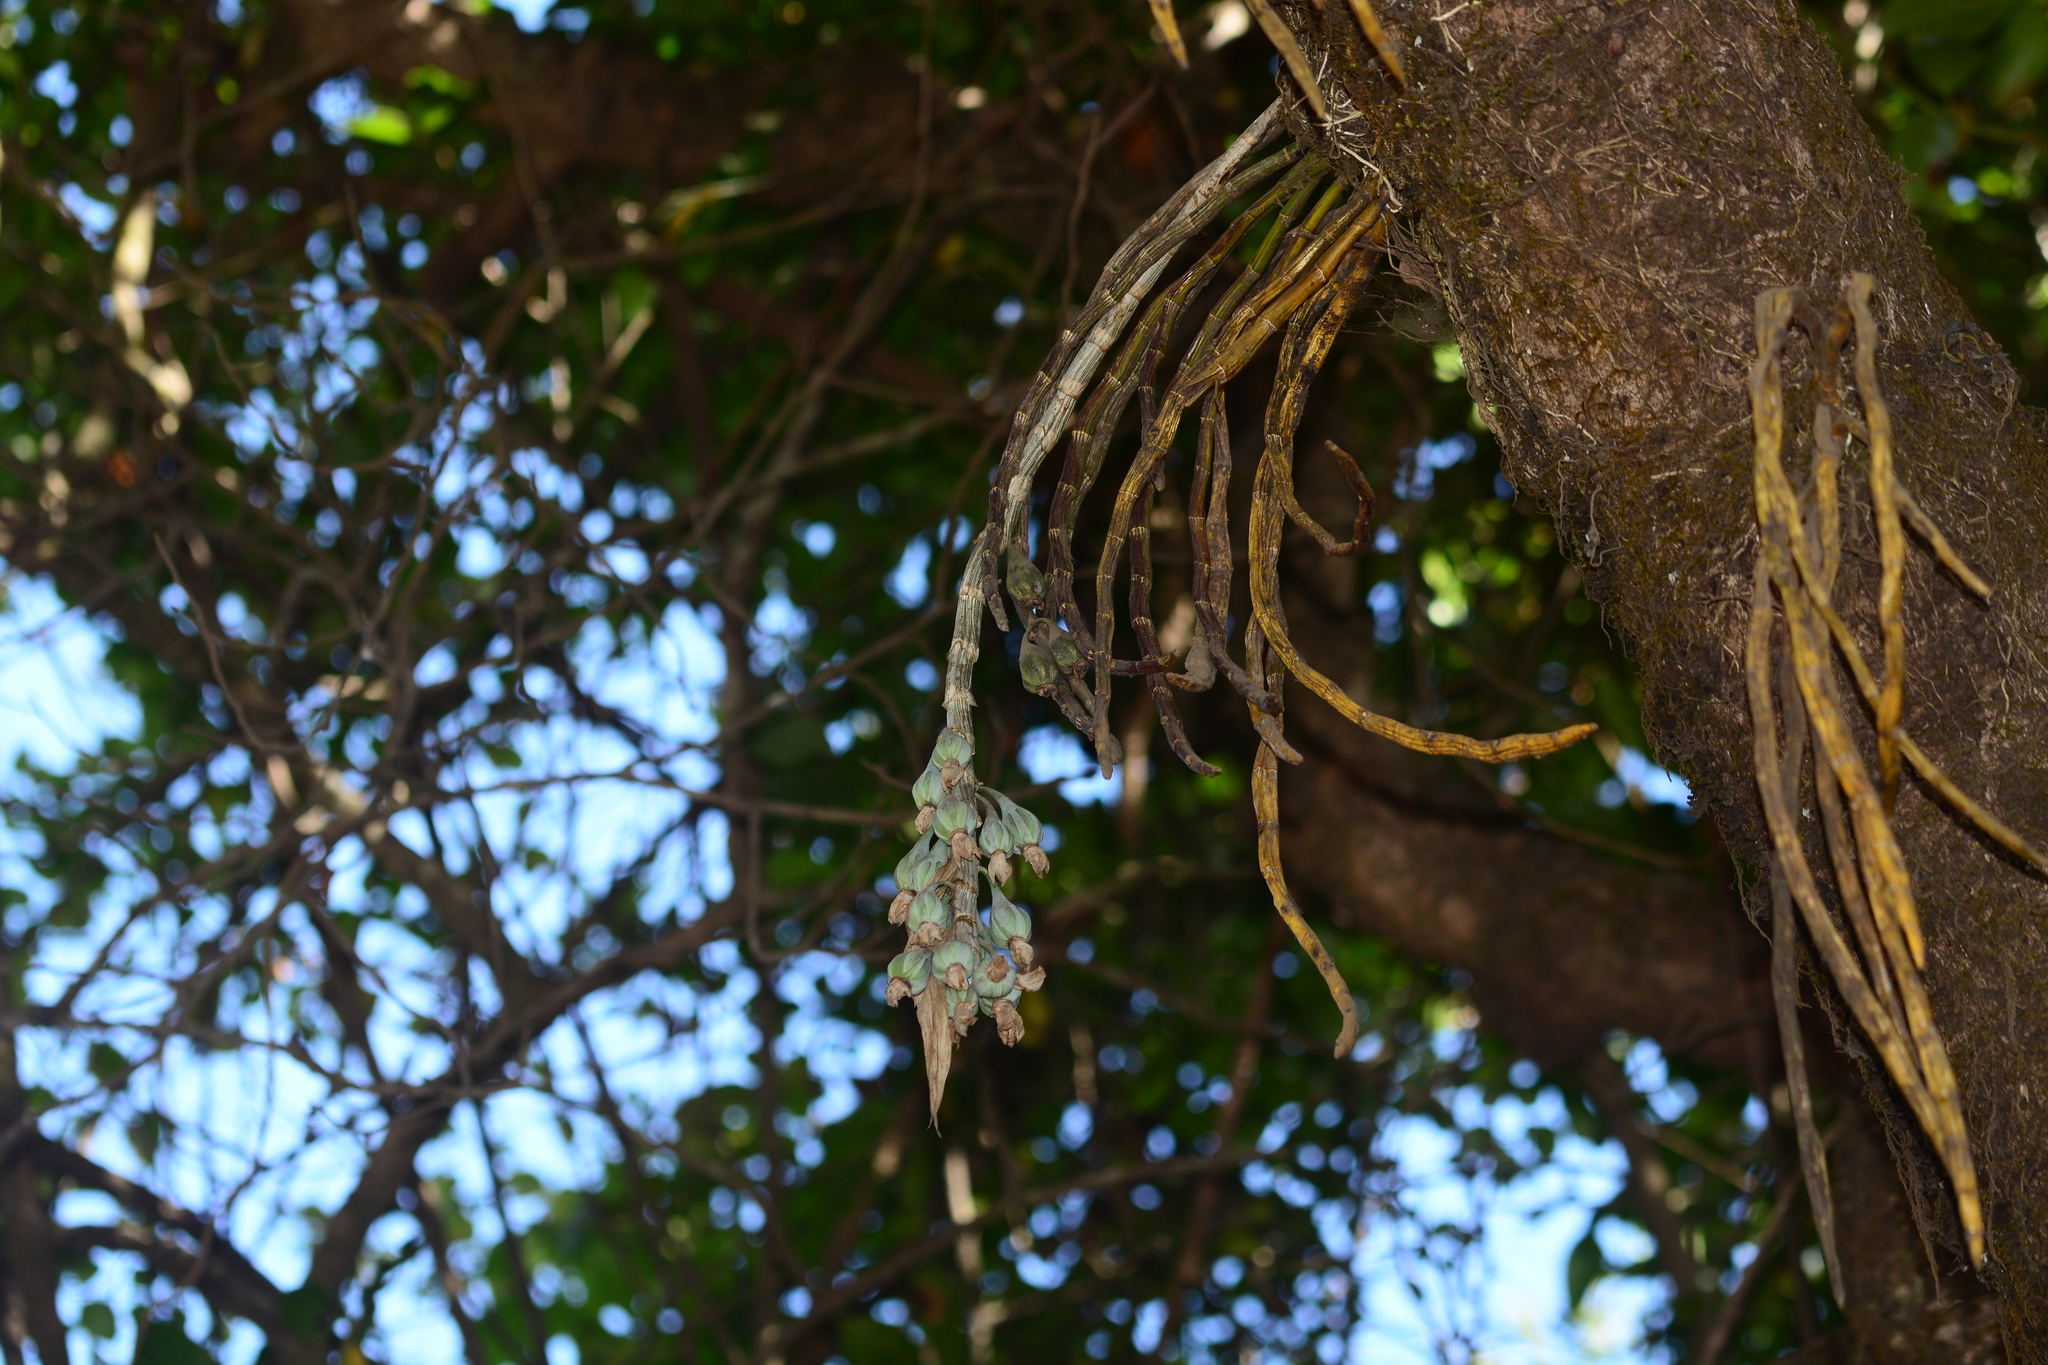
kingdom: Plantae
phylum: Tracheophyta
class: Liliopsida
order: Asparagales
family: Orchidaceae
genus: Dendrobium
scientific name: Dendrobium aqueum
